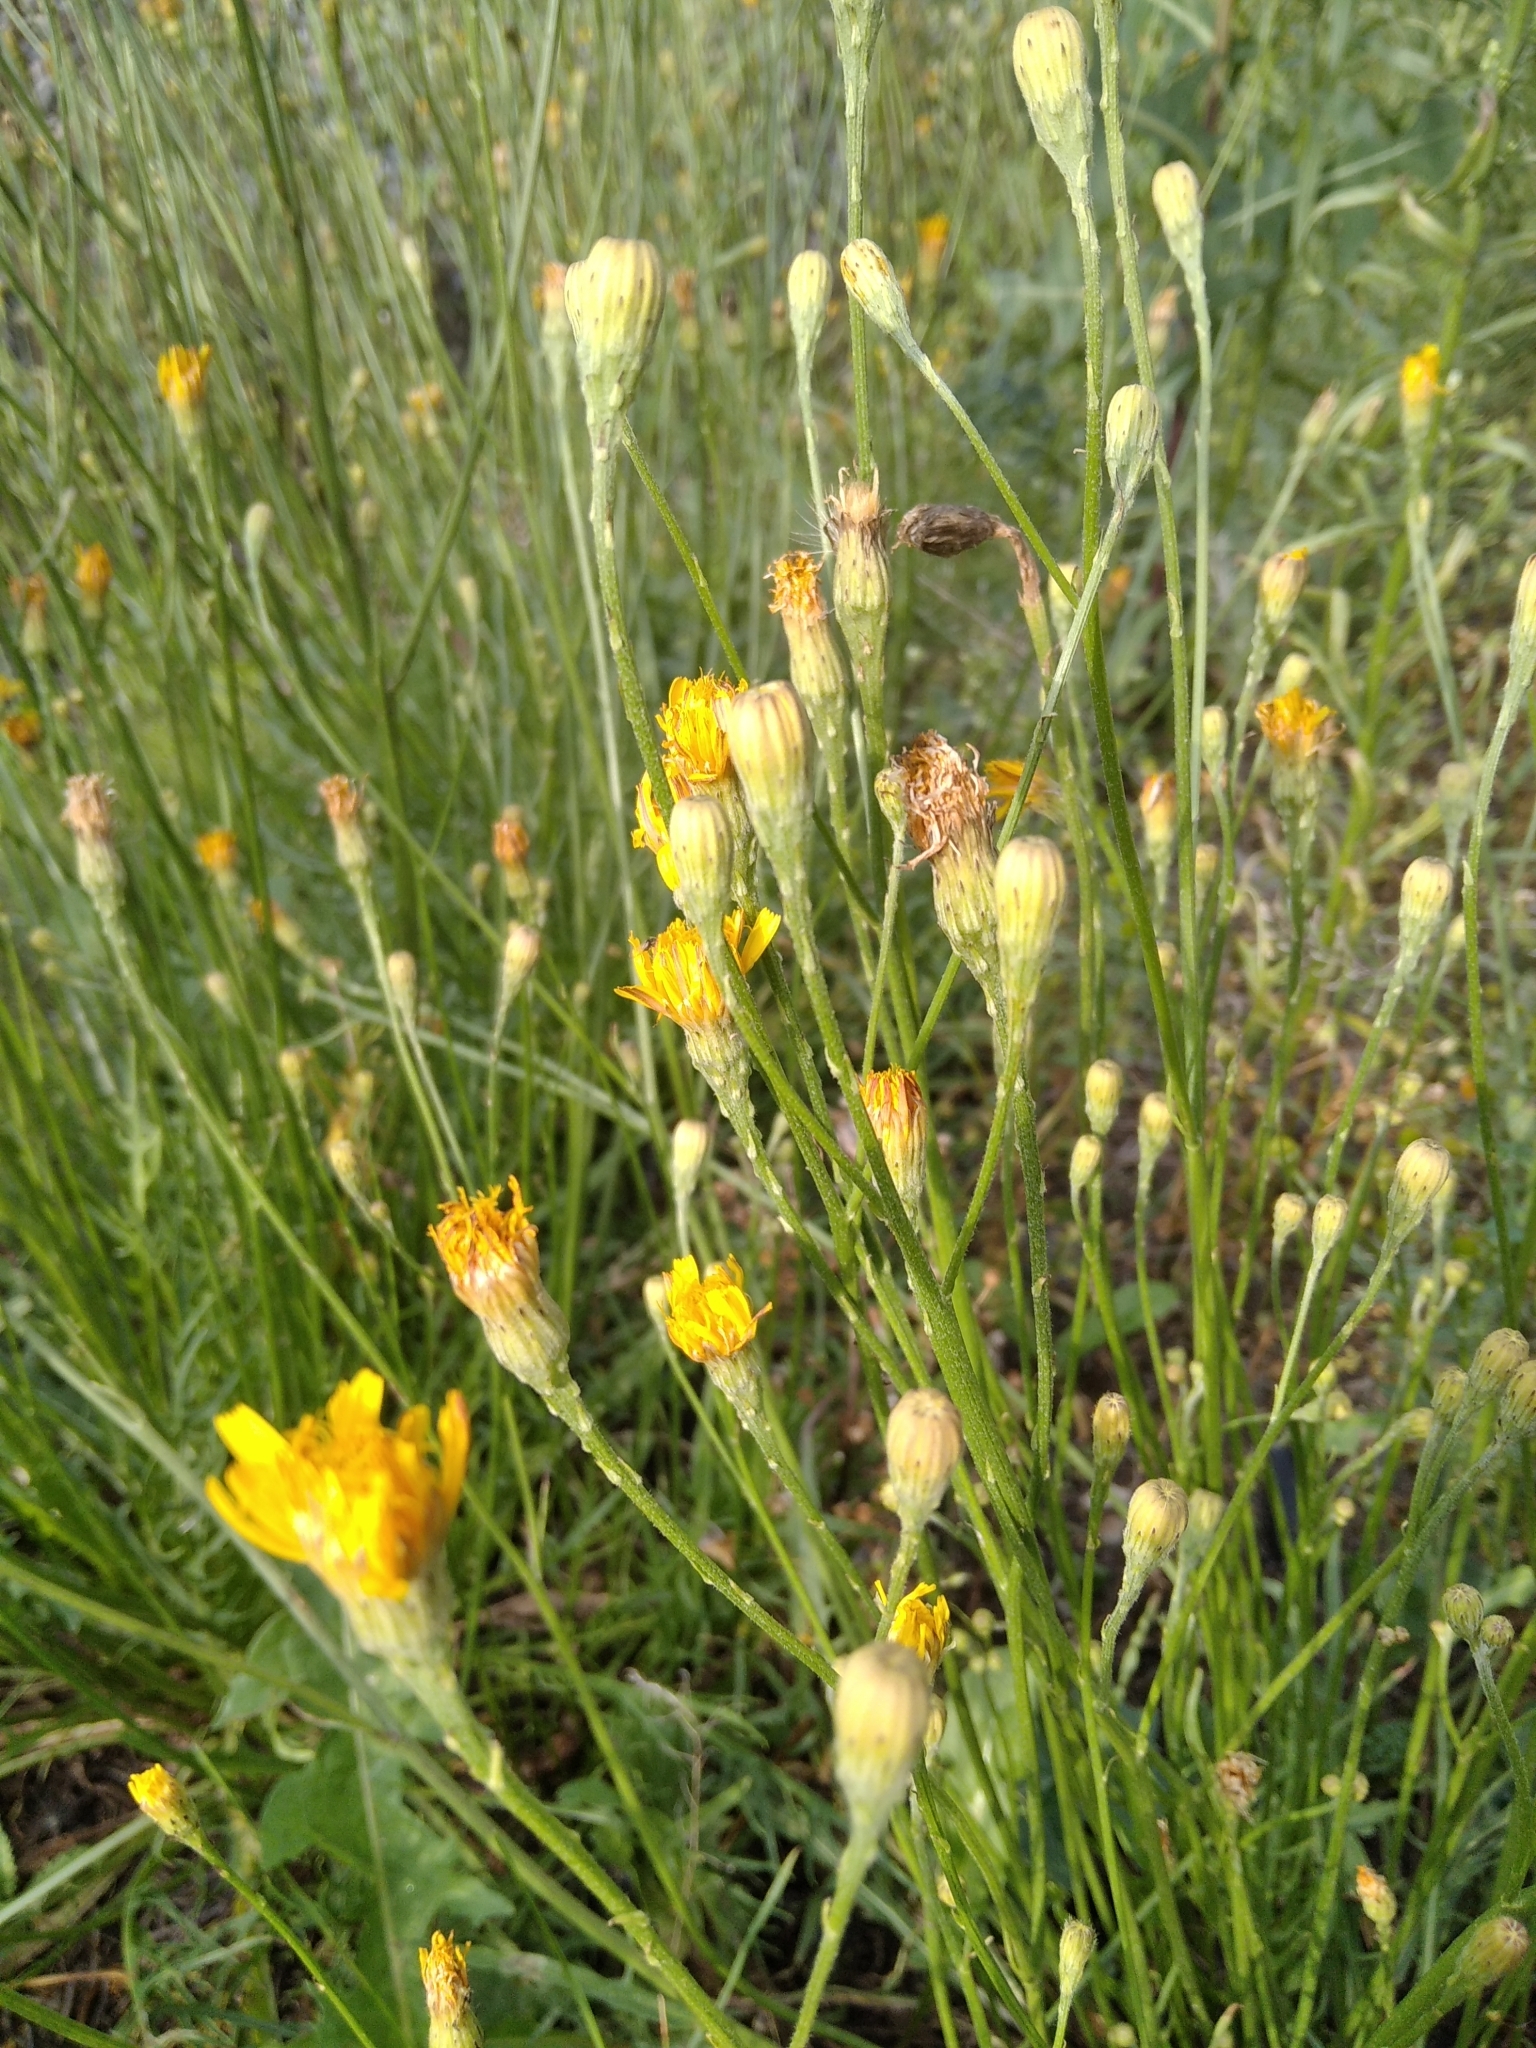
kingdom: Plantae
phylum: Tracheophyta
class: Magnoliopsida
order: Asterales
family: Asteraceae
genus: Scorzoneroides
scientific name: Scorzoneroides autumnalis
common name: Autumn hawkbit
